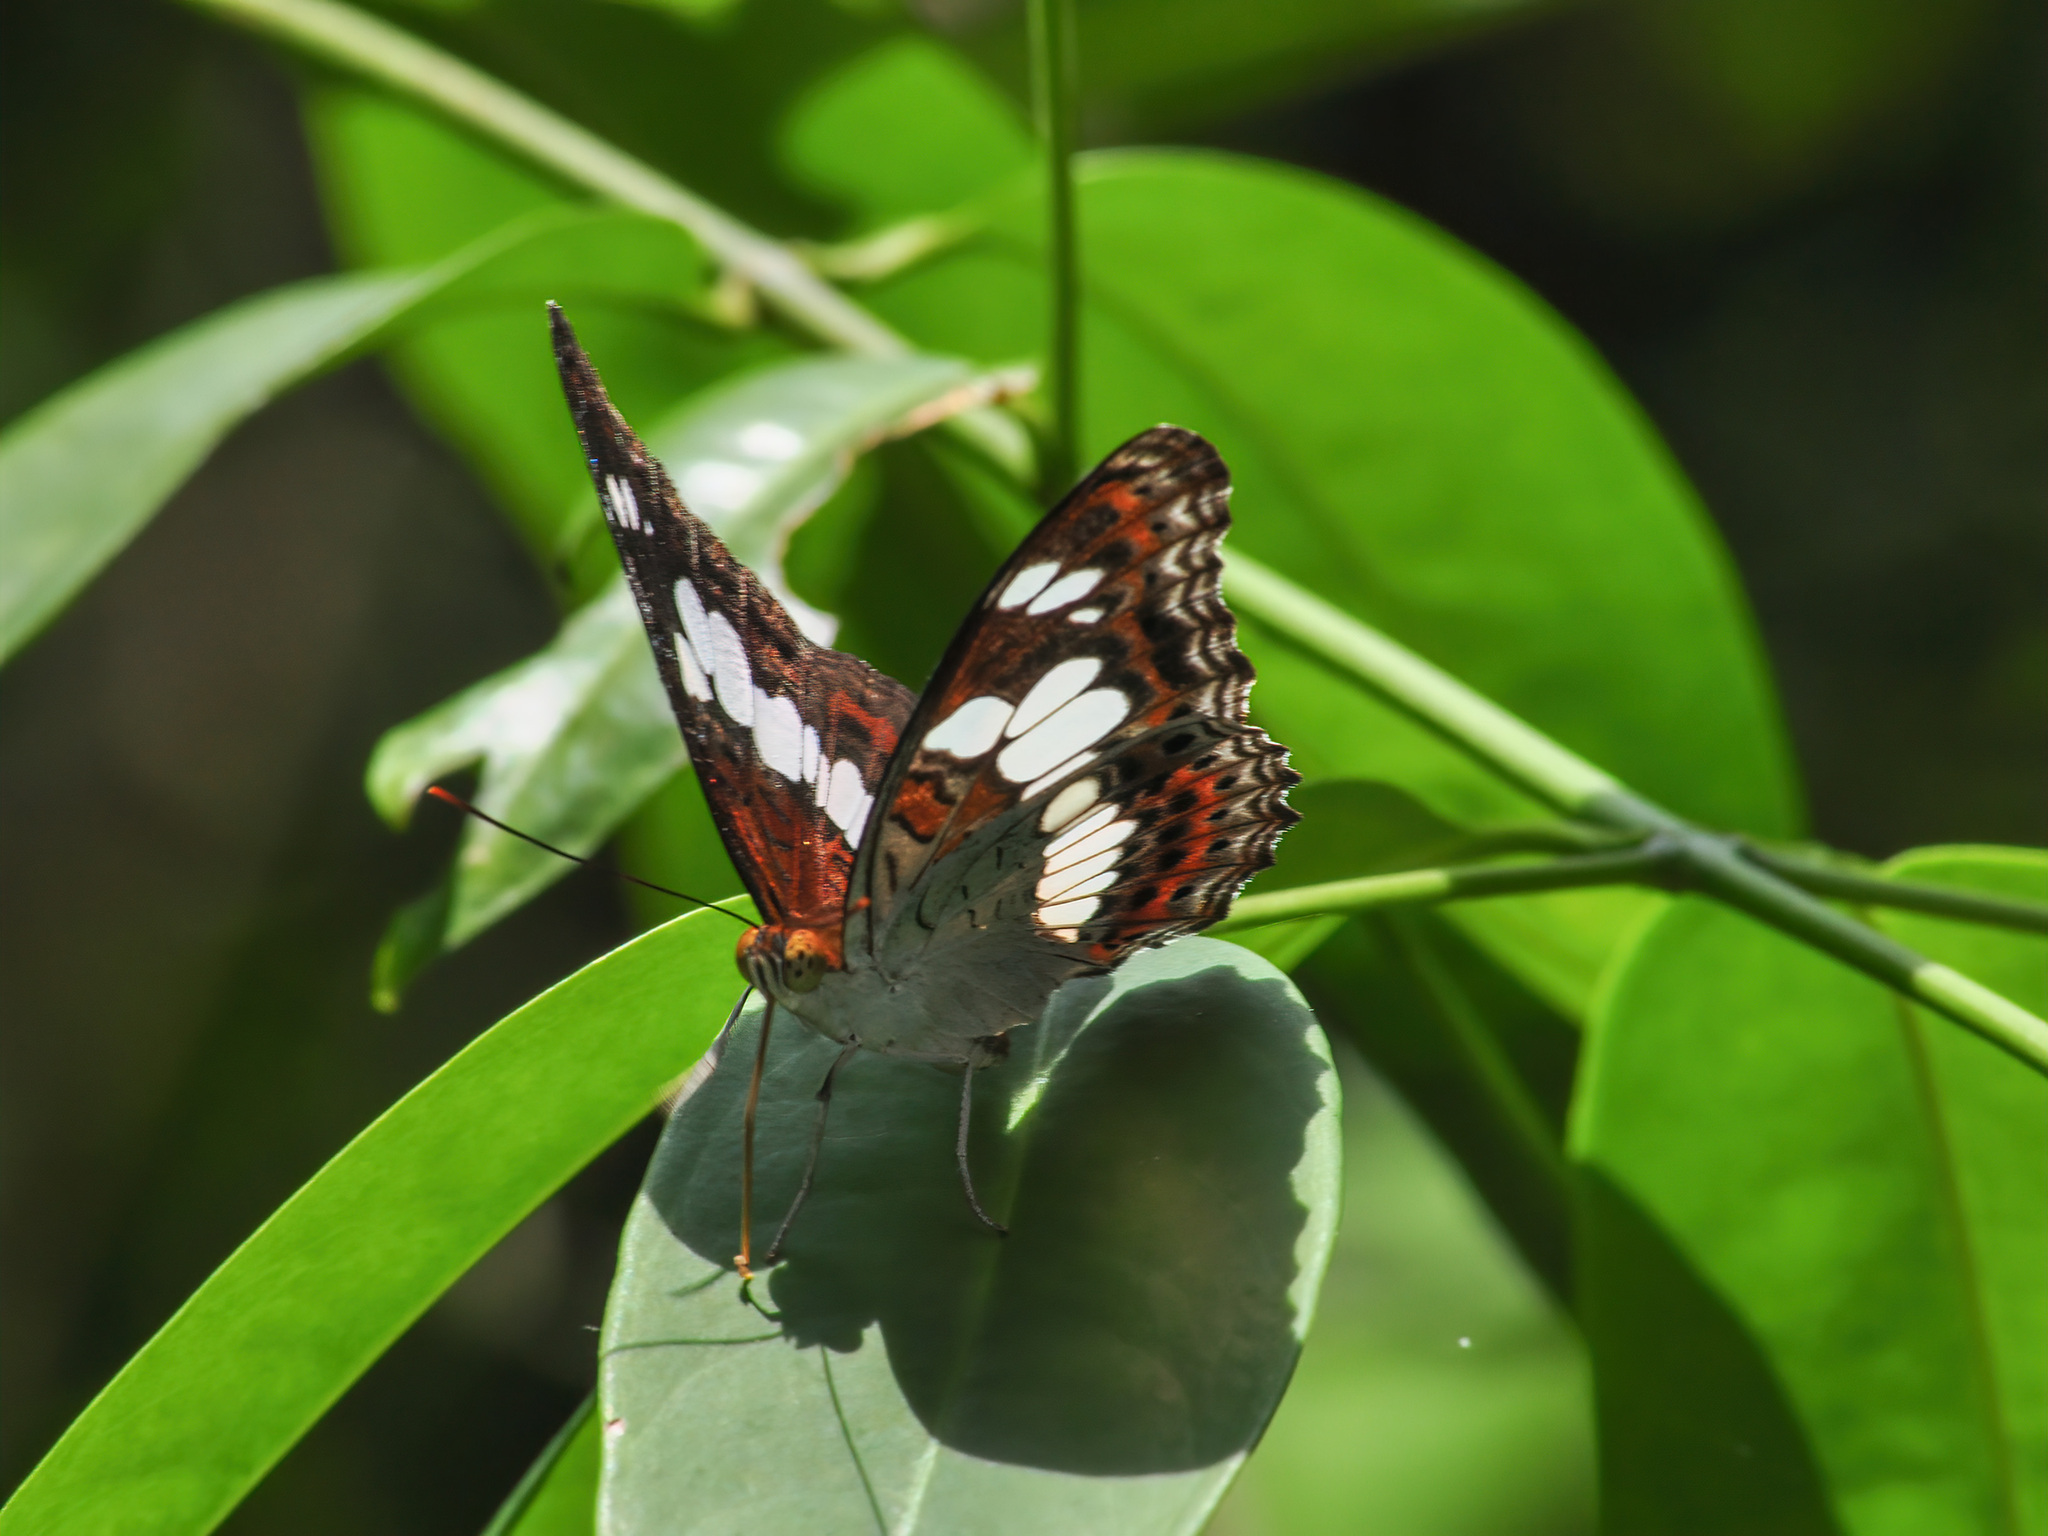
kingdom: Animalia
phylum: Arthropoda
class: Insecta
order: Lepidoptera
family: Nymphalidae
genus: Limenitis
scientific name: Limenitis Moduza procris
